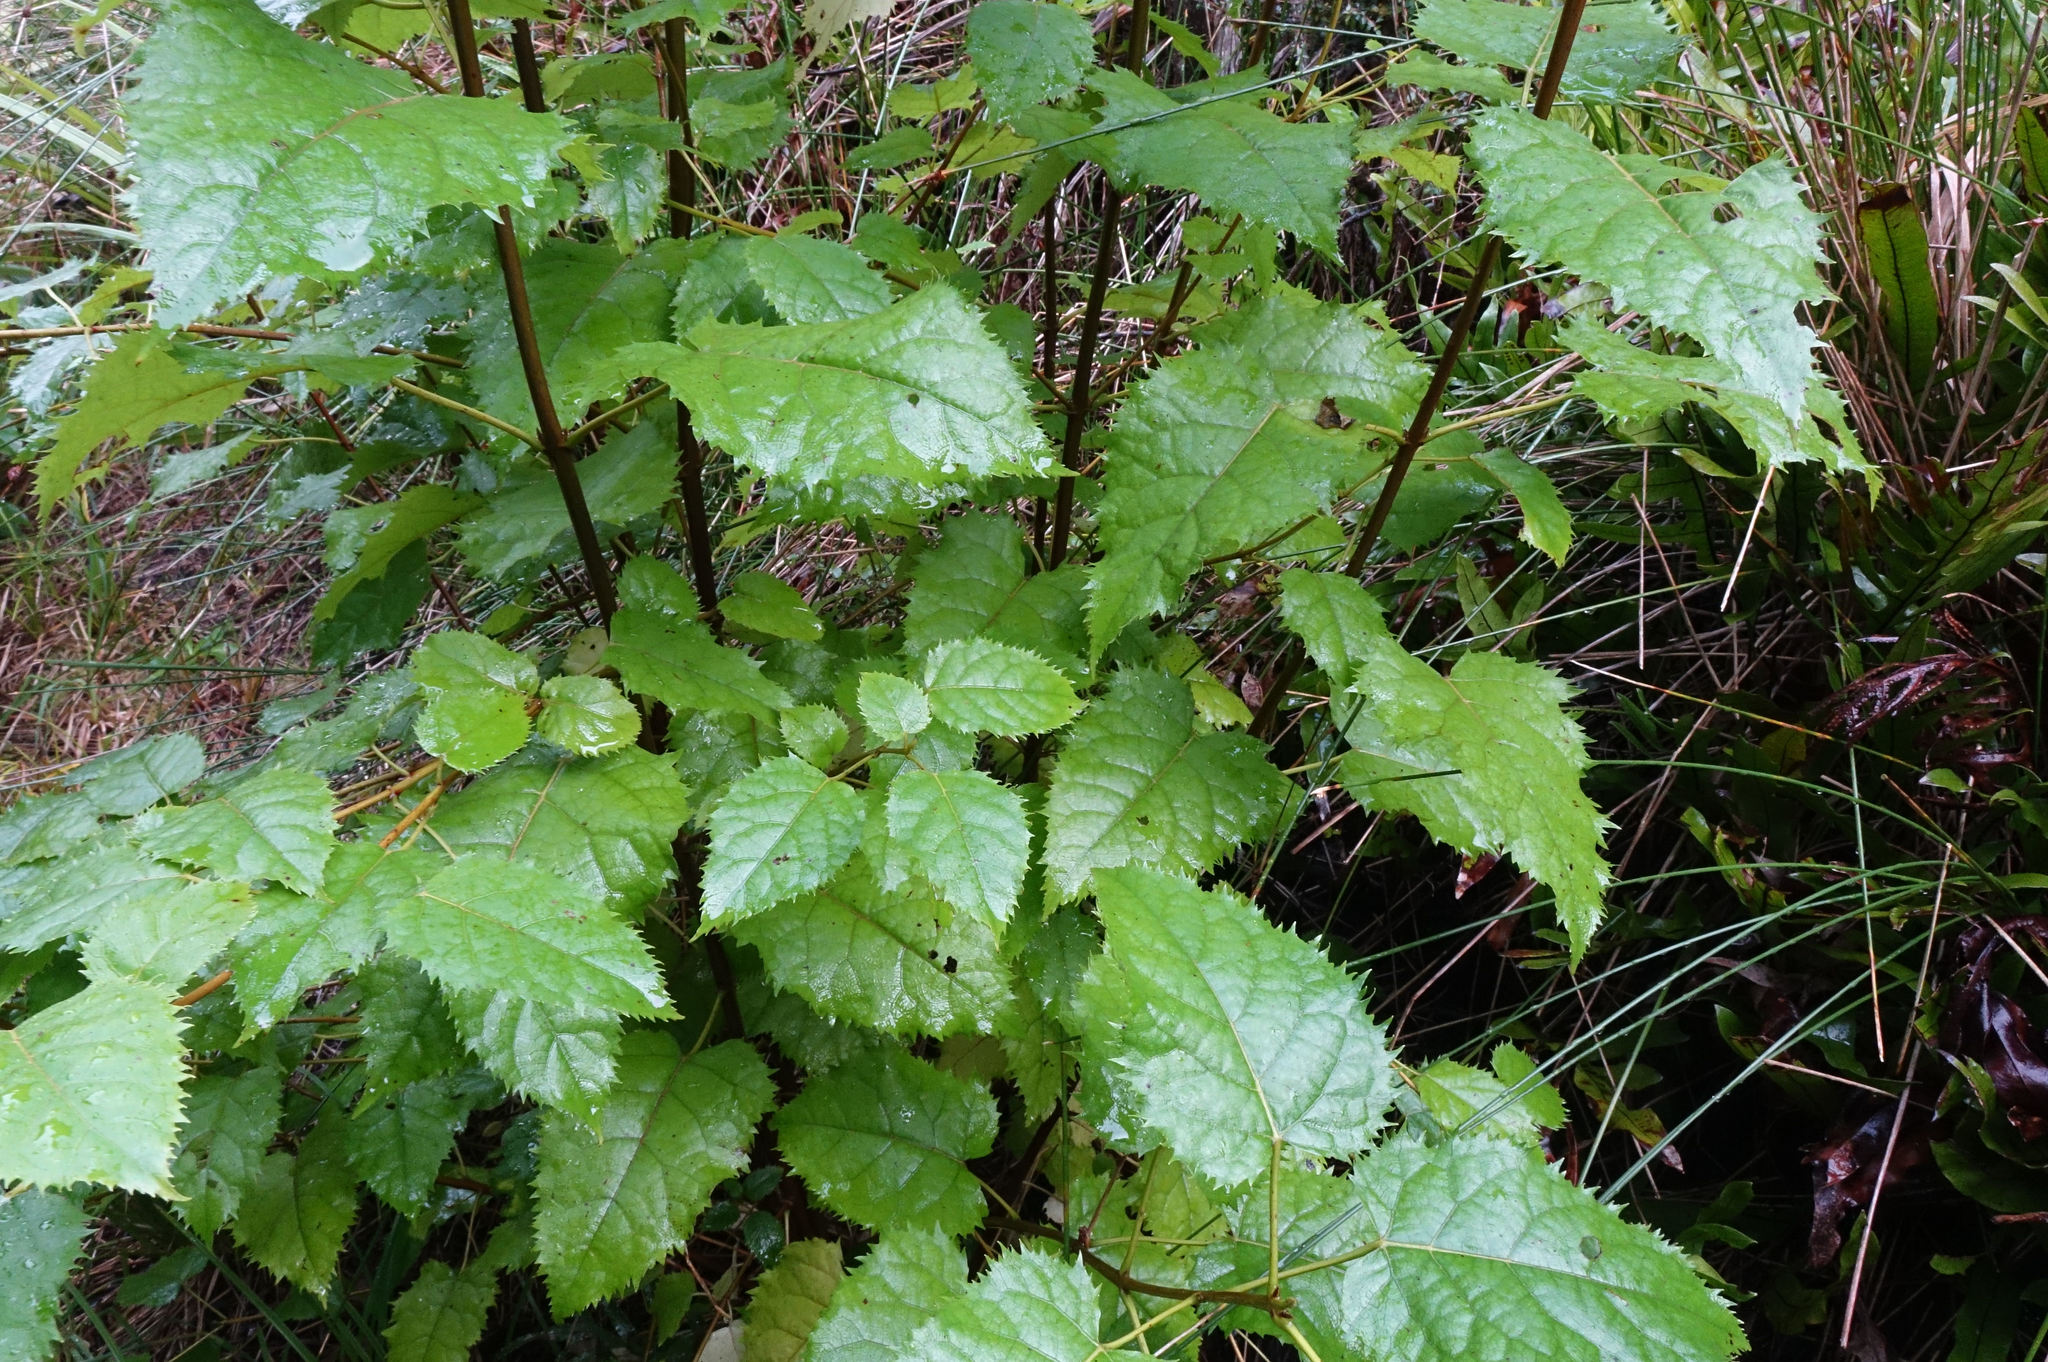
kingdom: Plantae
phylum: Tracheophyta
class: Magnoliopsida
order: Oxalidales
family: Elaeocarpaceae
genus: Aristotelia
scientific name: Aristotelia serrata
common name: New zealand wineberry
